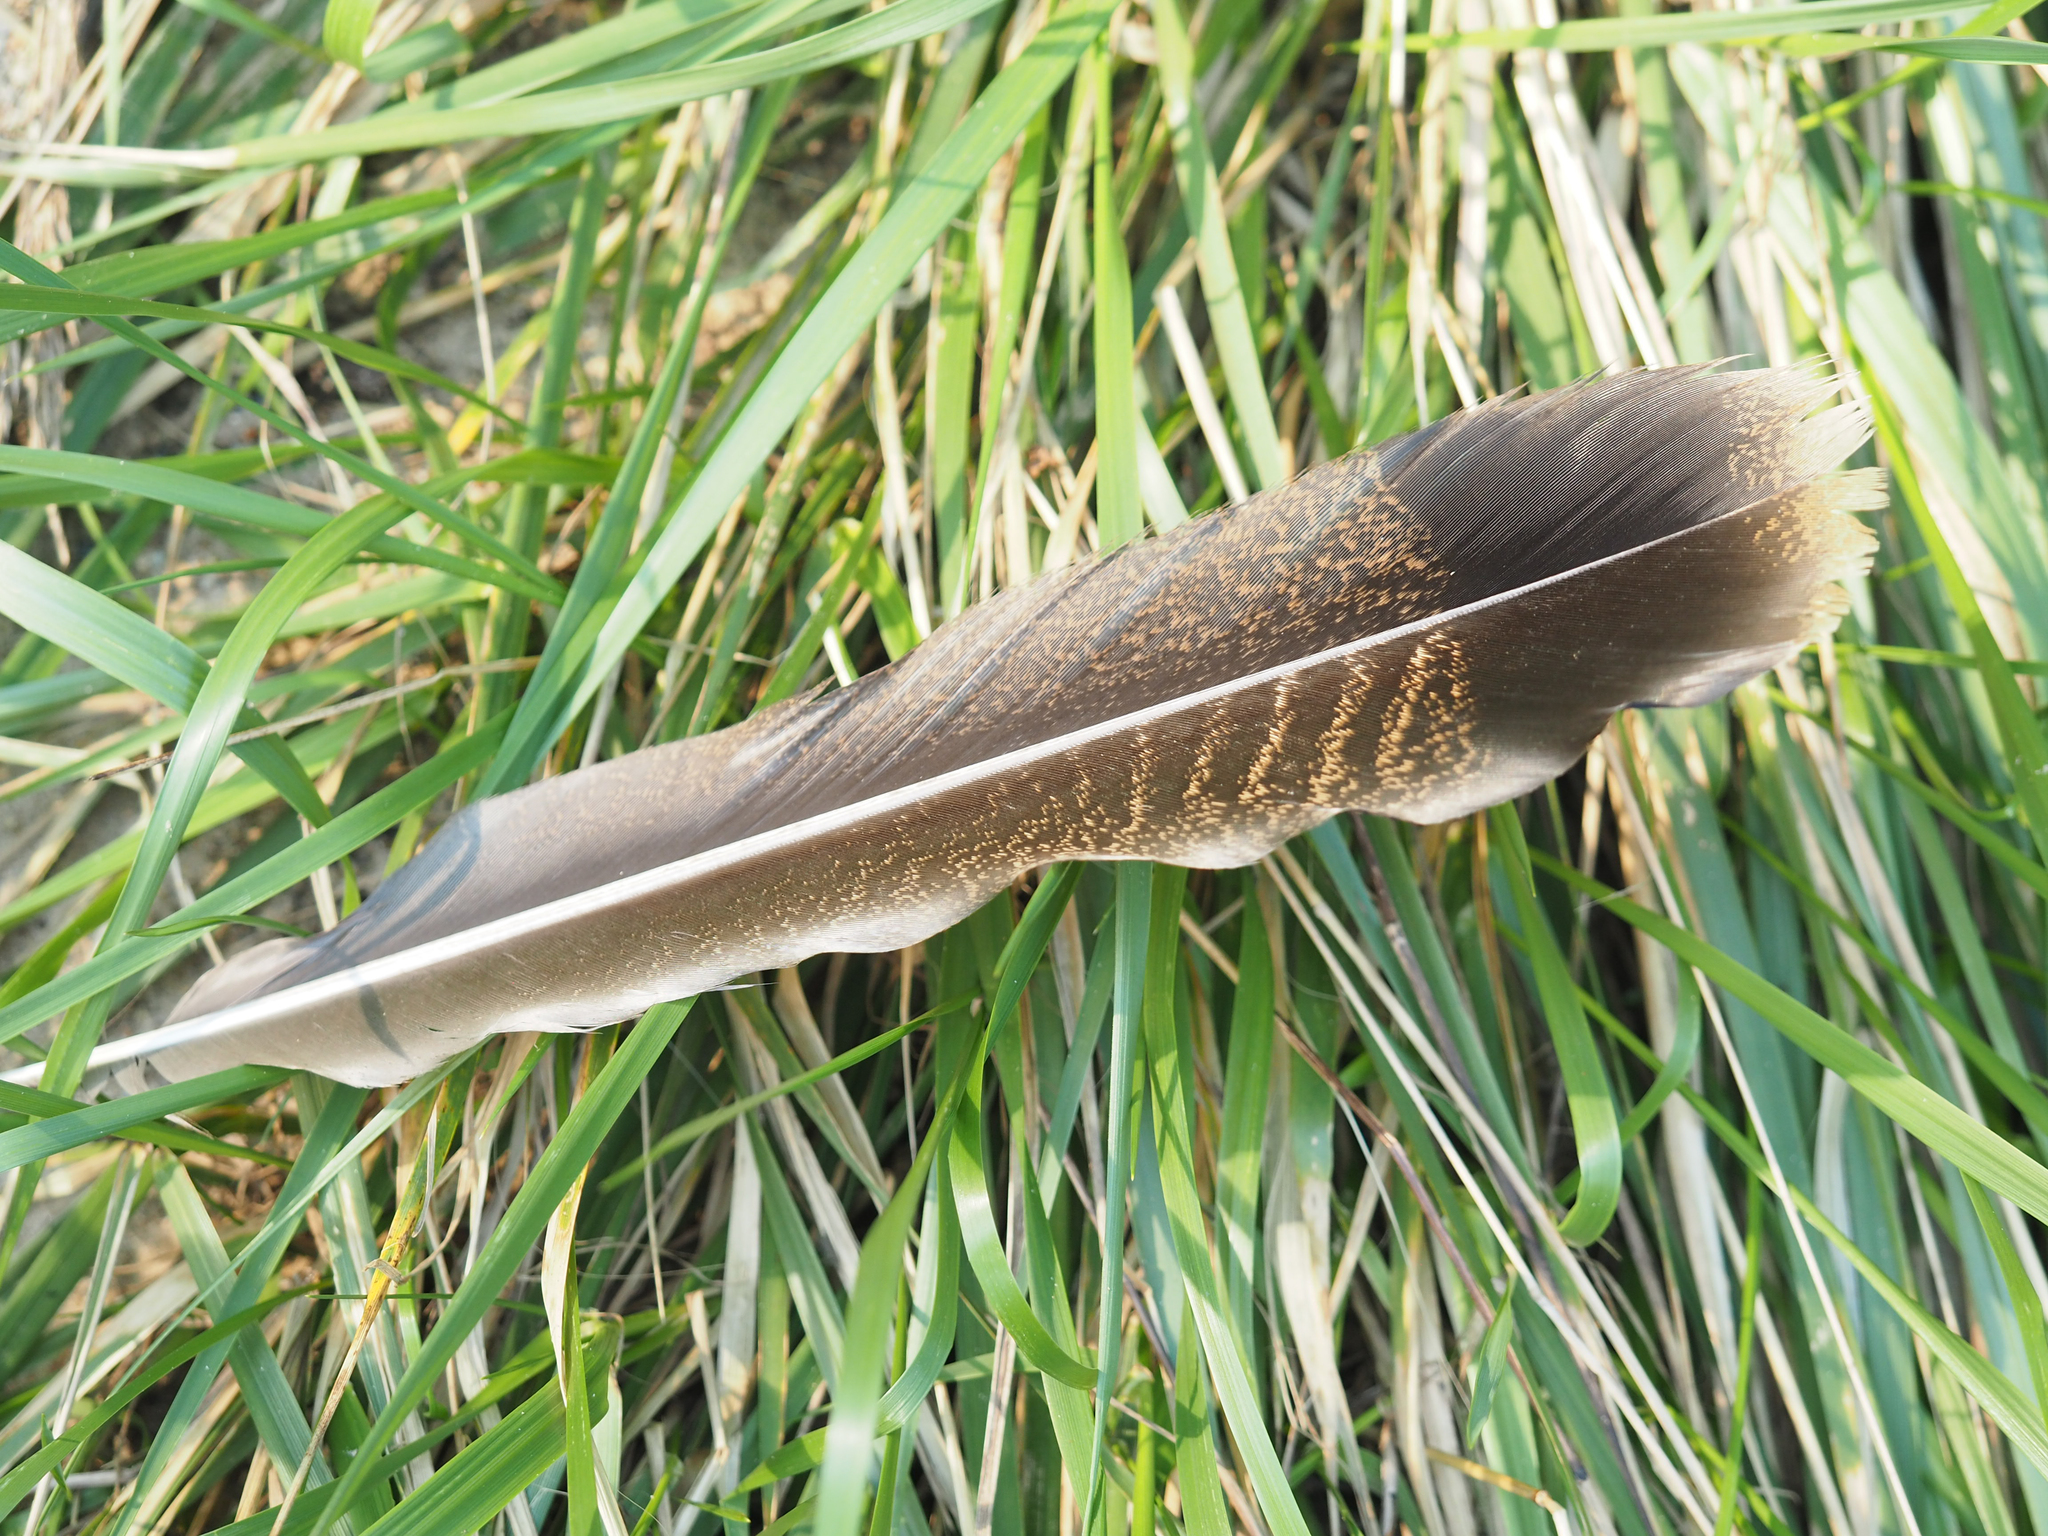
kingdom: Animalia
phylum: Chordata
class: Aves
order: Galliformes
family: Phasianidae
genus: Meleagris
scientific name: Meleagris gallopavo
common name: Wild turkey
